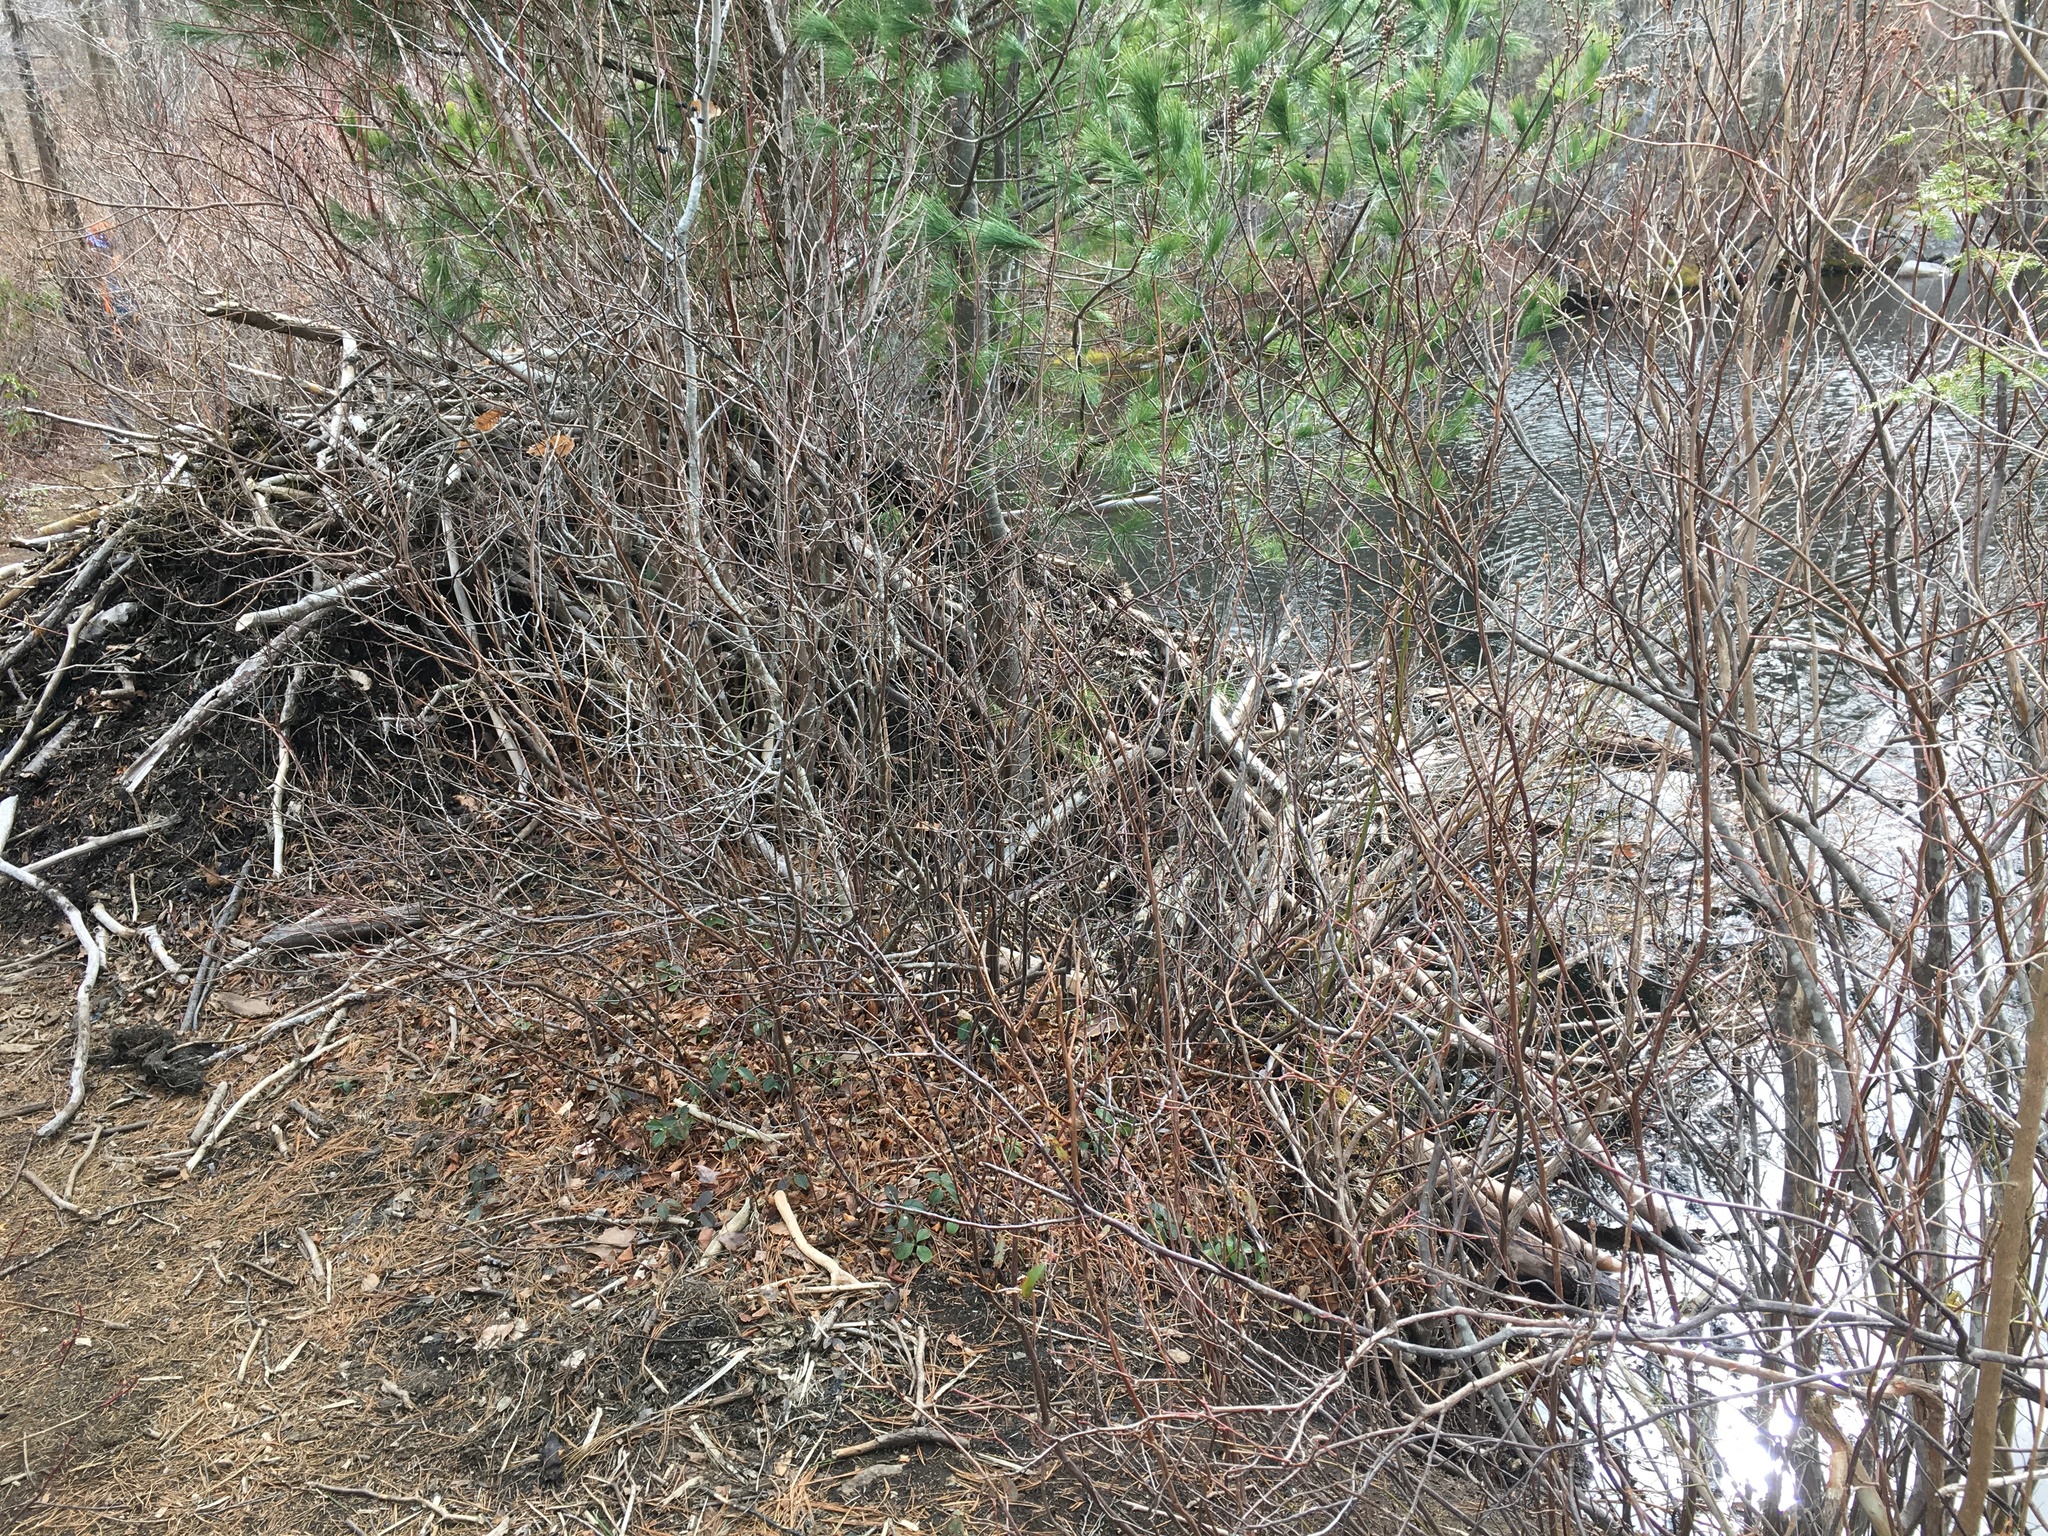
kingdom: Animalia
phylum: Chordata
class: Mammalia
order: Rodentia
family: Castoridae
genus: Castor
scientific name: Castor canadensis
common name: American beaver
